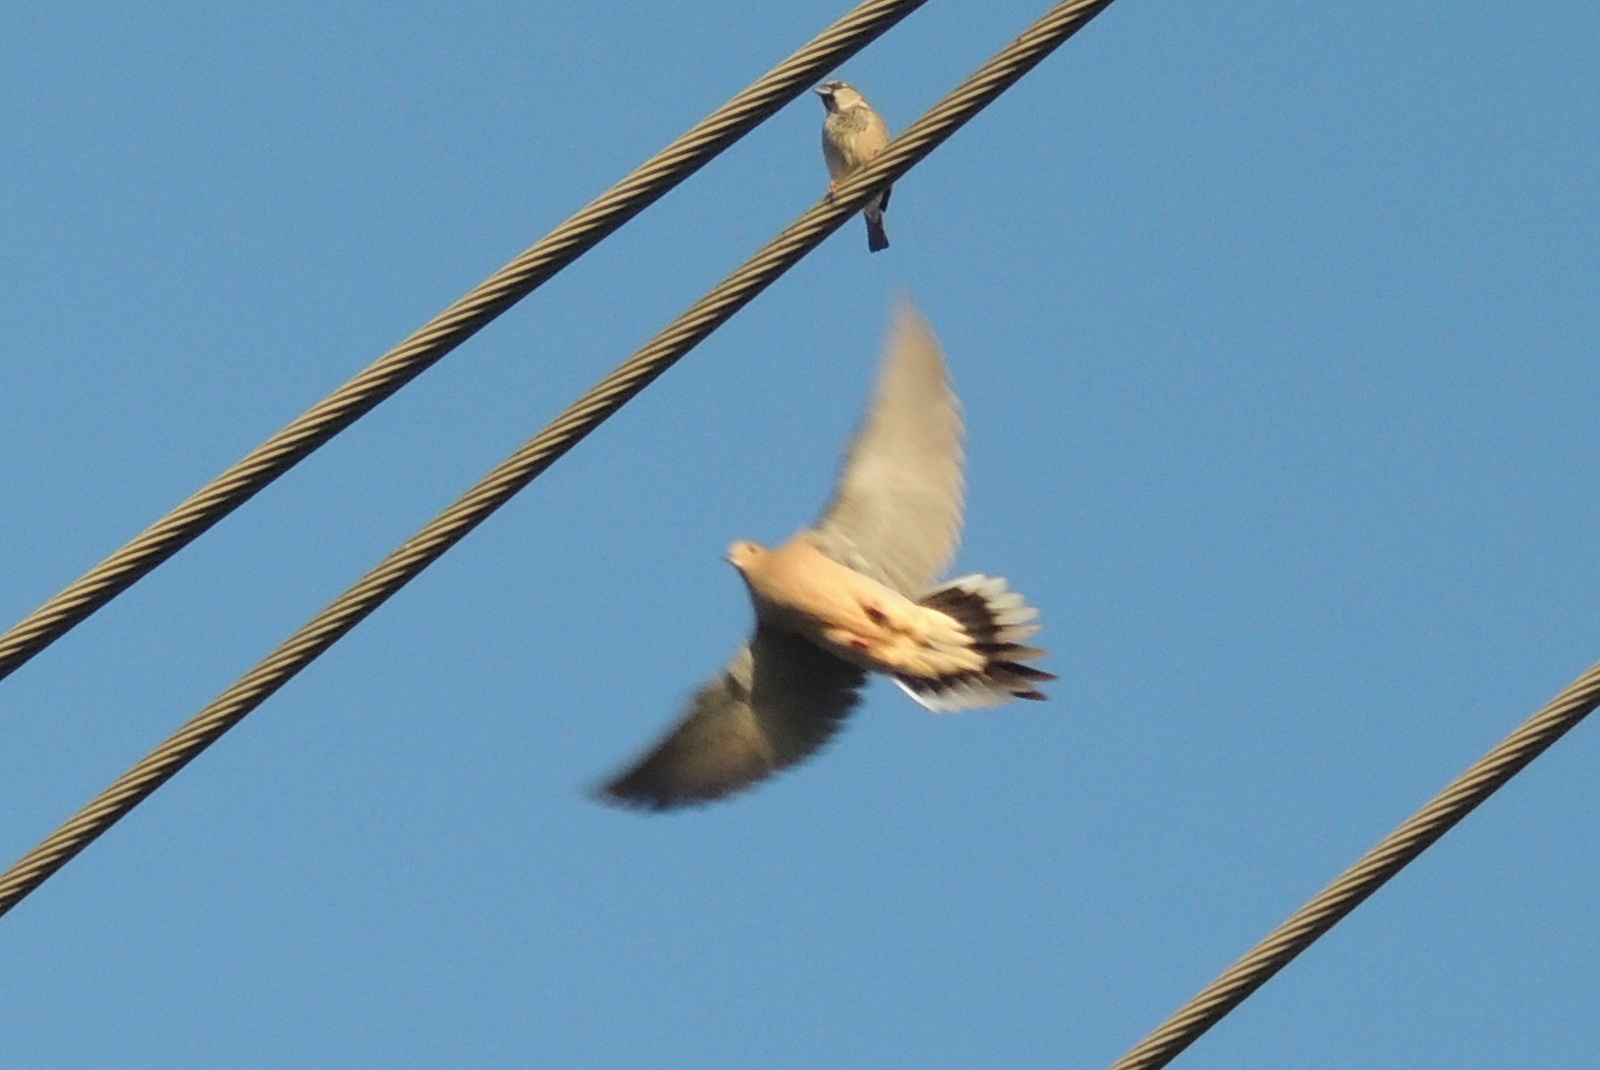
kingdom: Animalia
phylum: Chordata
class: Aves
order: Columbiformes
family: Columbidae
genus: Zenaida
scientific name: Zenaida macroura
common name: Mourning dove
